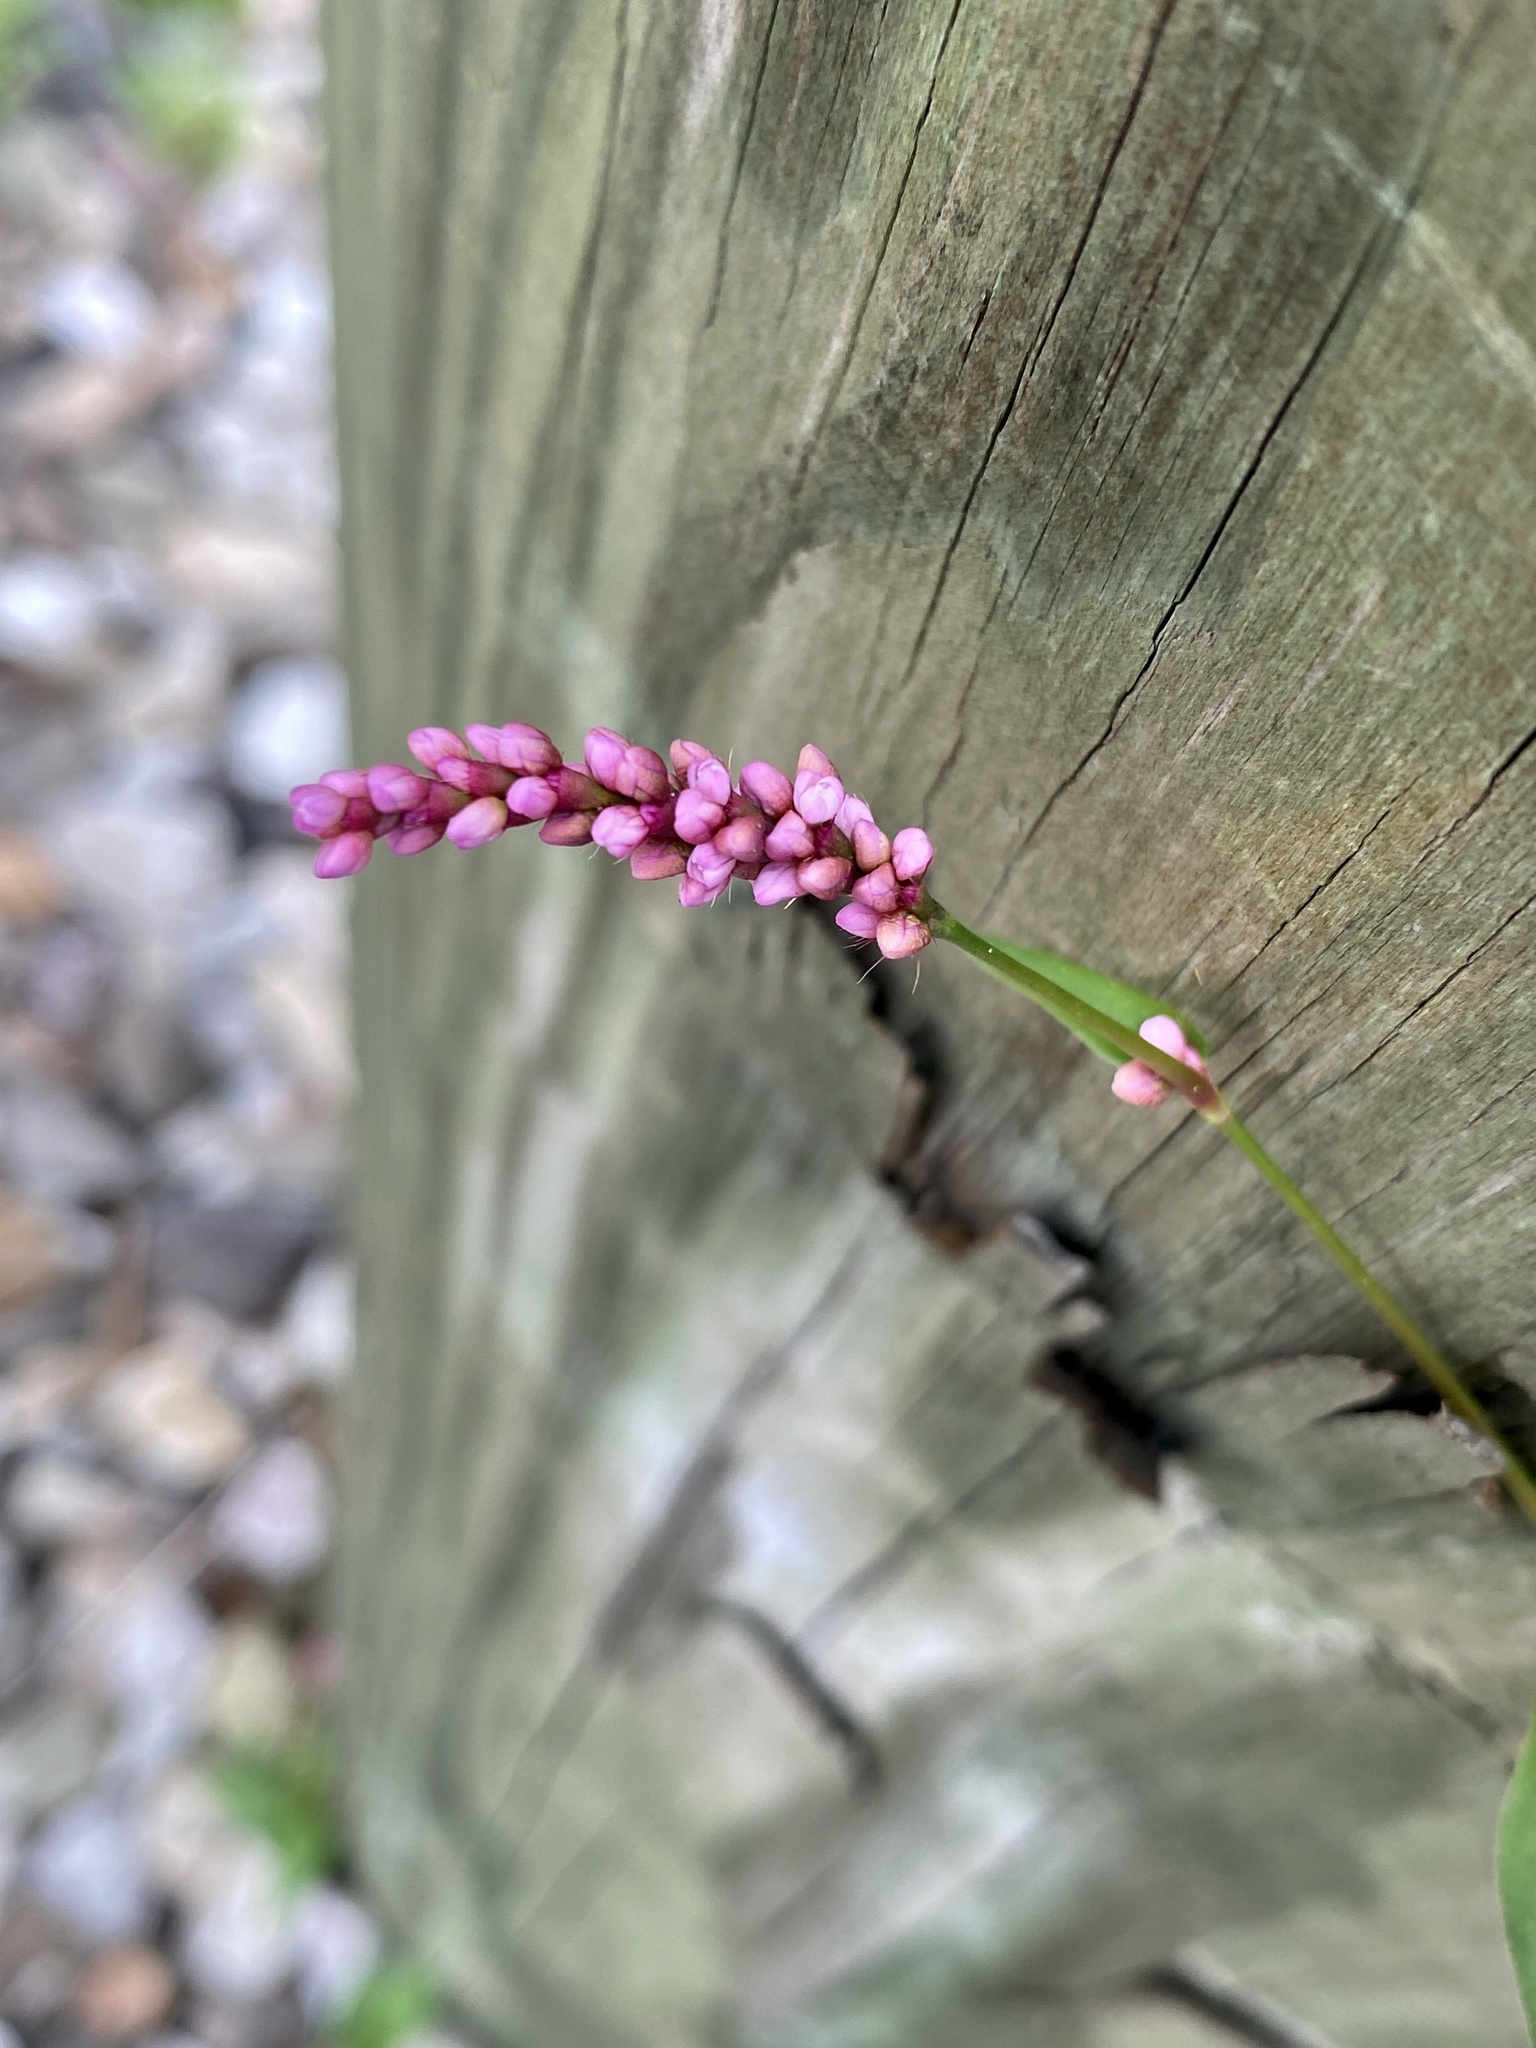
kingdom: Plantae
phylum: Tracheophyta
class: Magnoliopsida
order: Caryophyllales
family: Polygonaceae
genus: Persicaria
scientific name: Persicaria longiseta
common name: Bristly lady's-thumb
